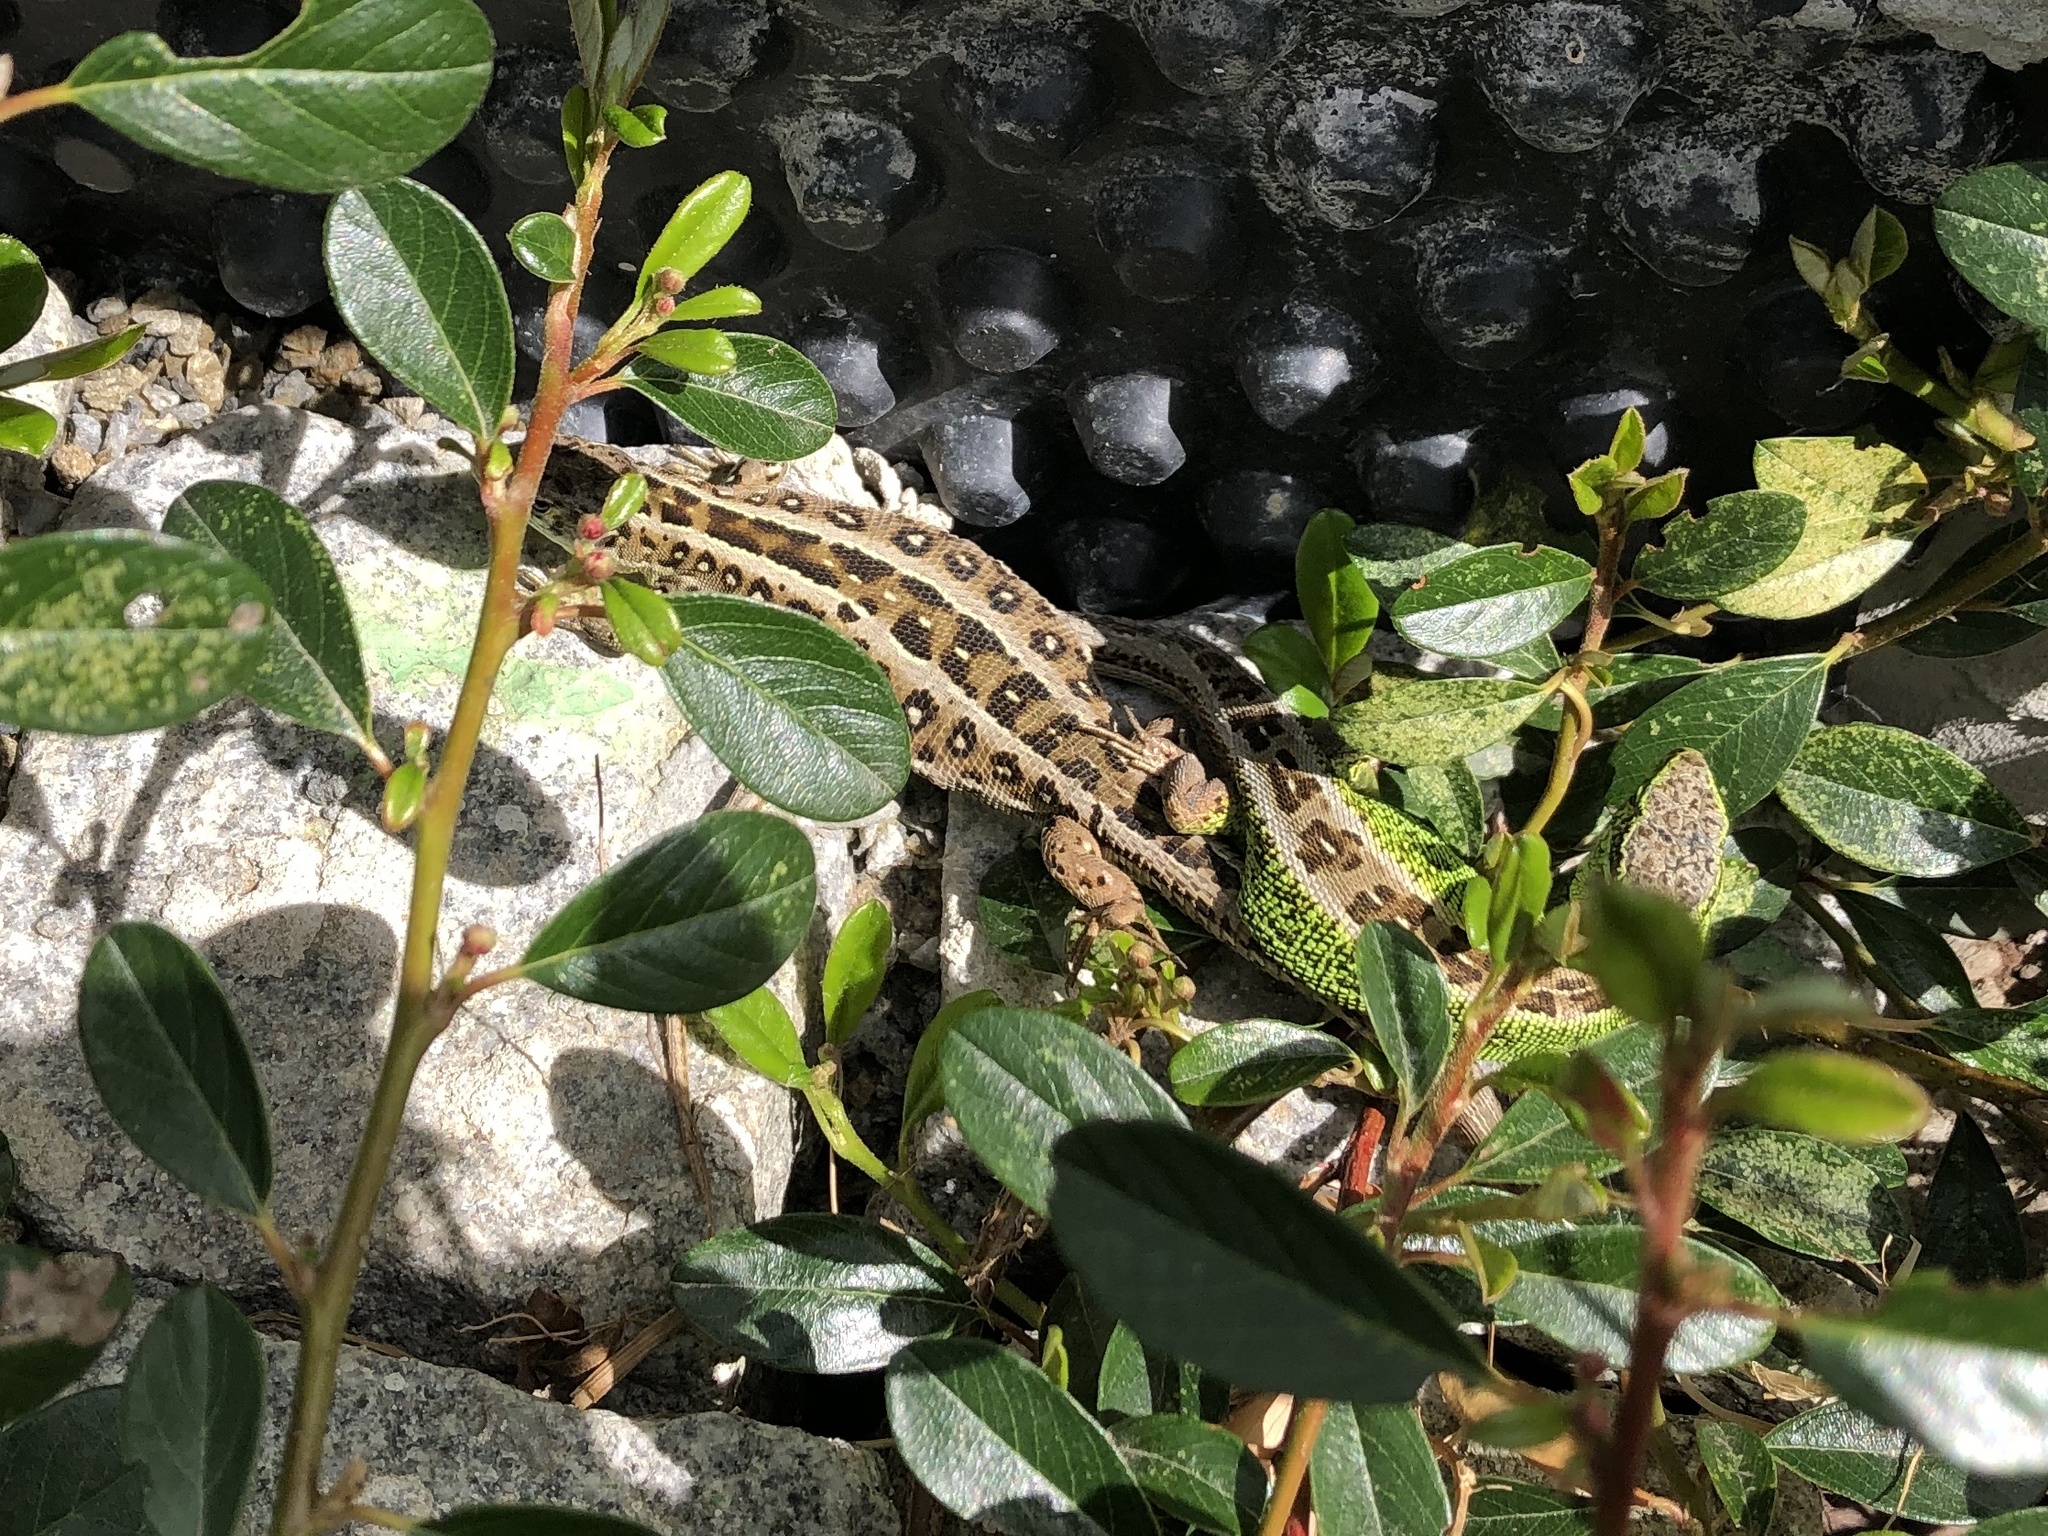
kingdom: Animalia
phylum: Chordata
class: Squamata
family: Lacertidae
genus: Lacerta
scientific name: Lacerta agilis
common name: Sand lizard
